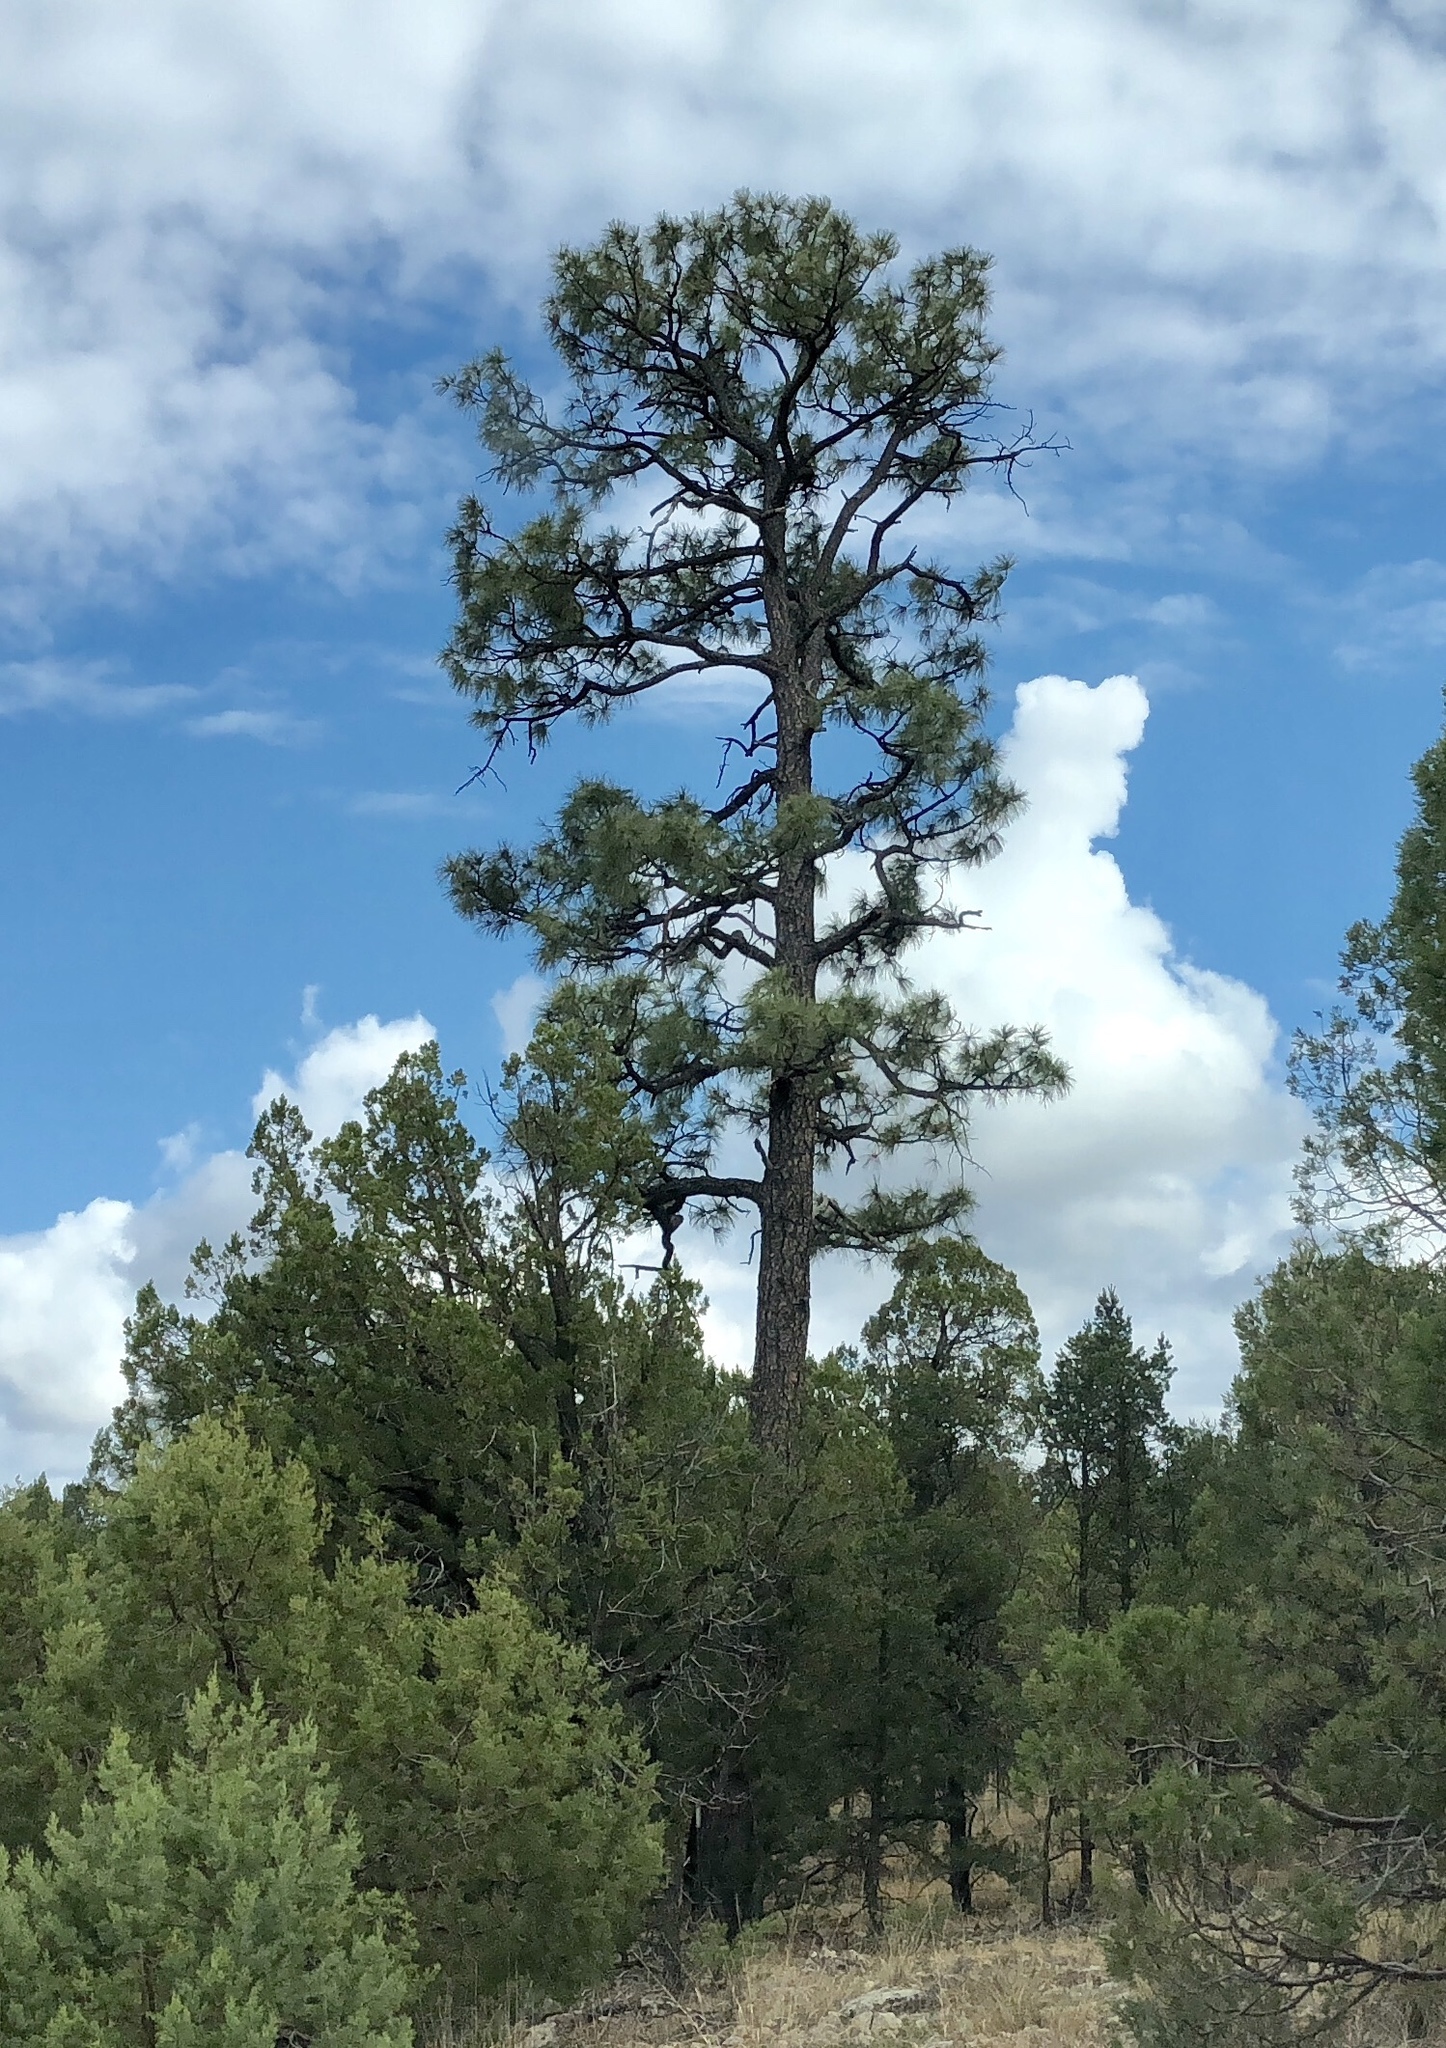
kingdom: Plantae
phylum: Tracheophyta
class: Pinopsida
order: Pinales
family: Pinaceae
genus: Pinus
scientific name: Pinus ponderosa
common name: Western yellow-pine
